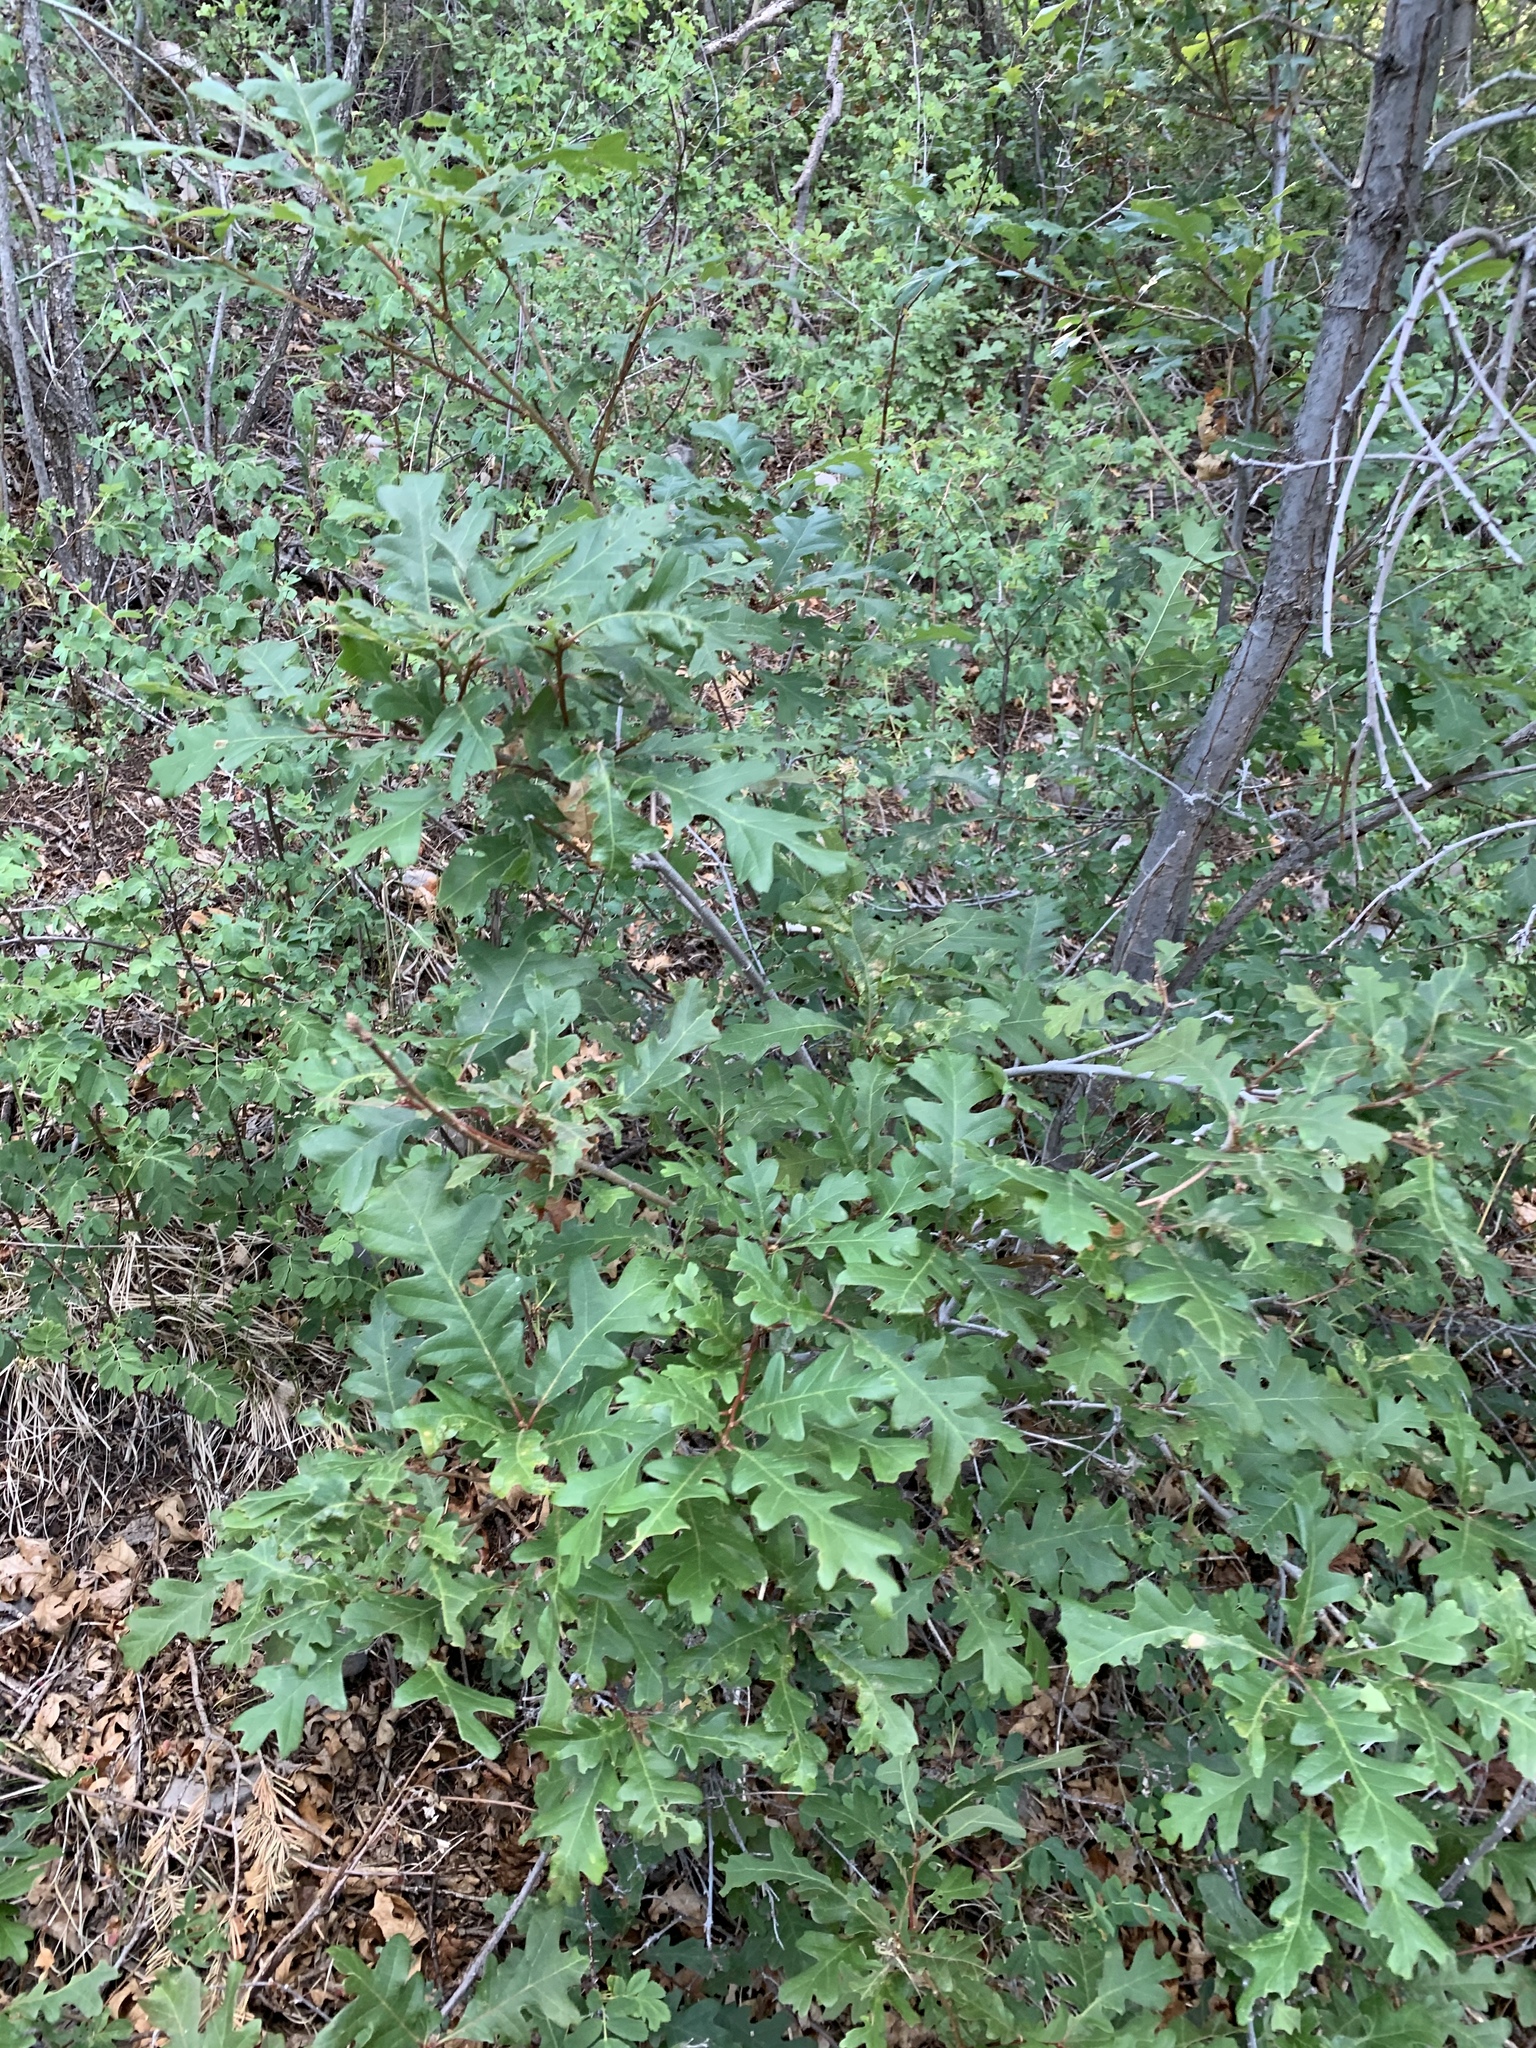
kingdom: Plantae
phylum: Tracheophyta
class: Magnoliopsida
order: Fagales
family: Fagaceae
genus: Quercus
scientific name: Quercus gambelii
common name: Gambel oak
